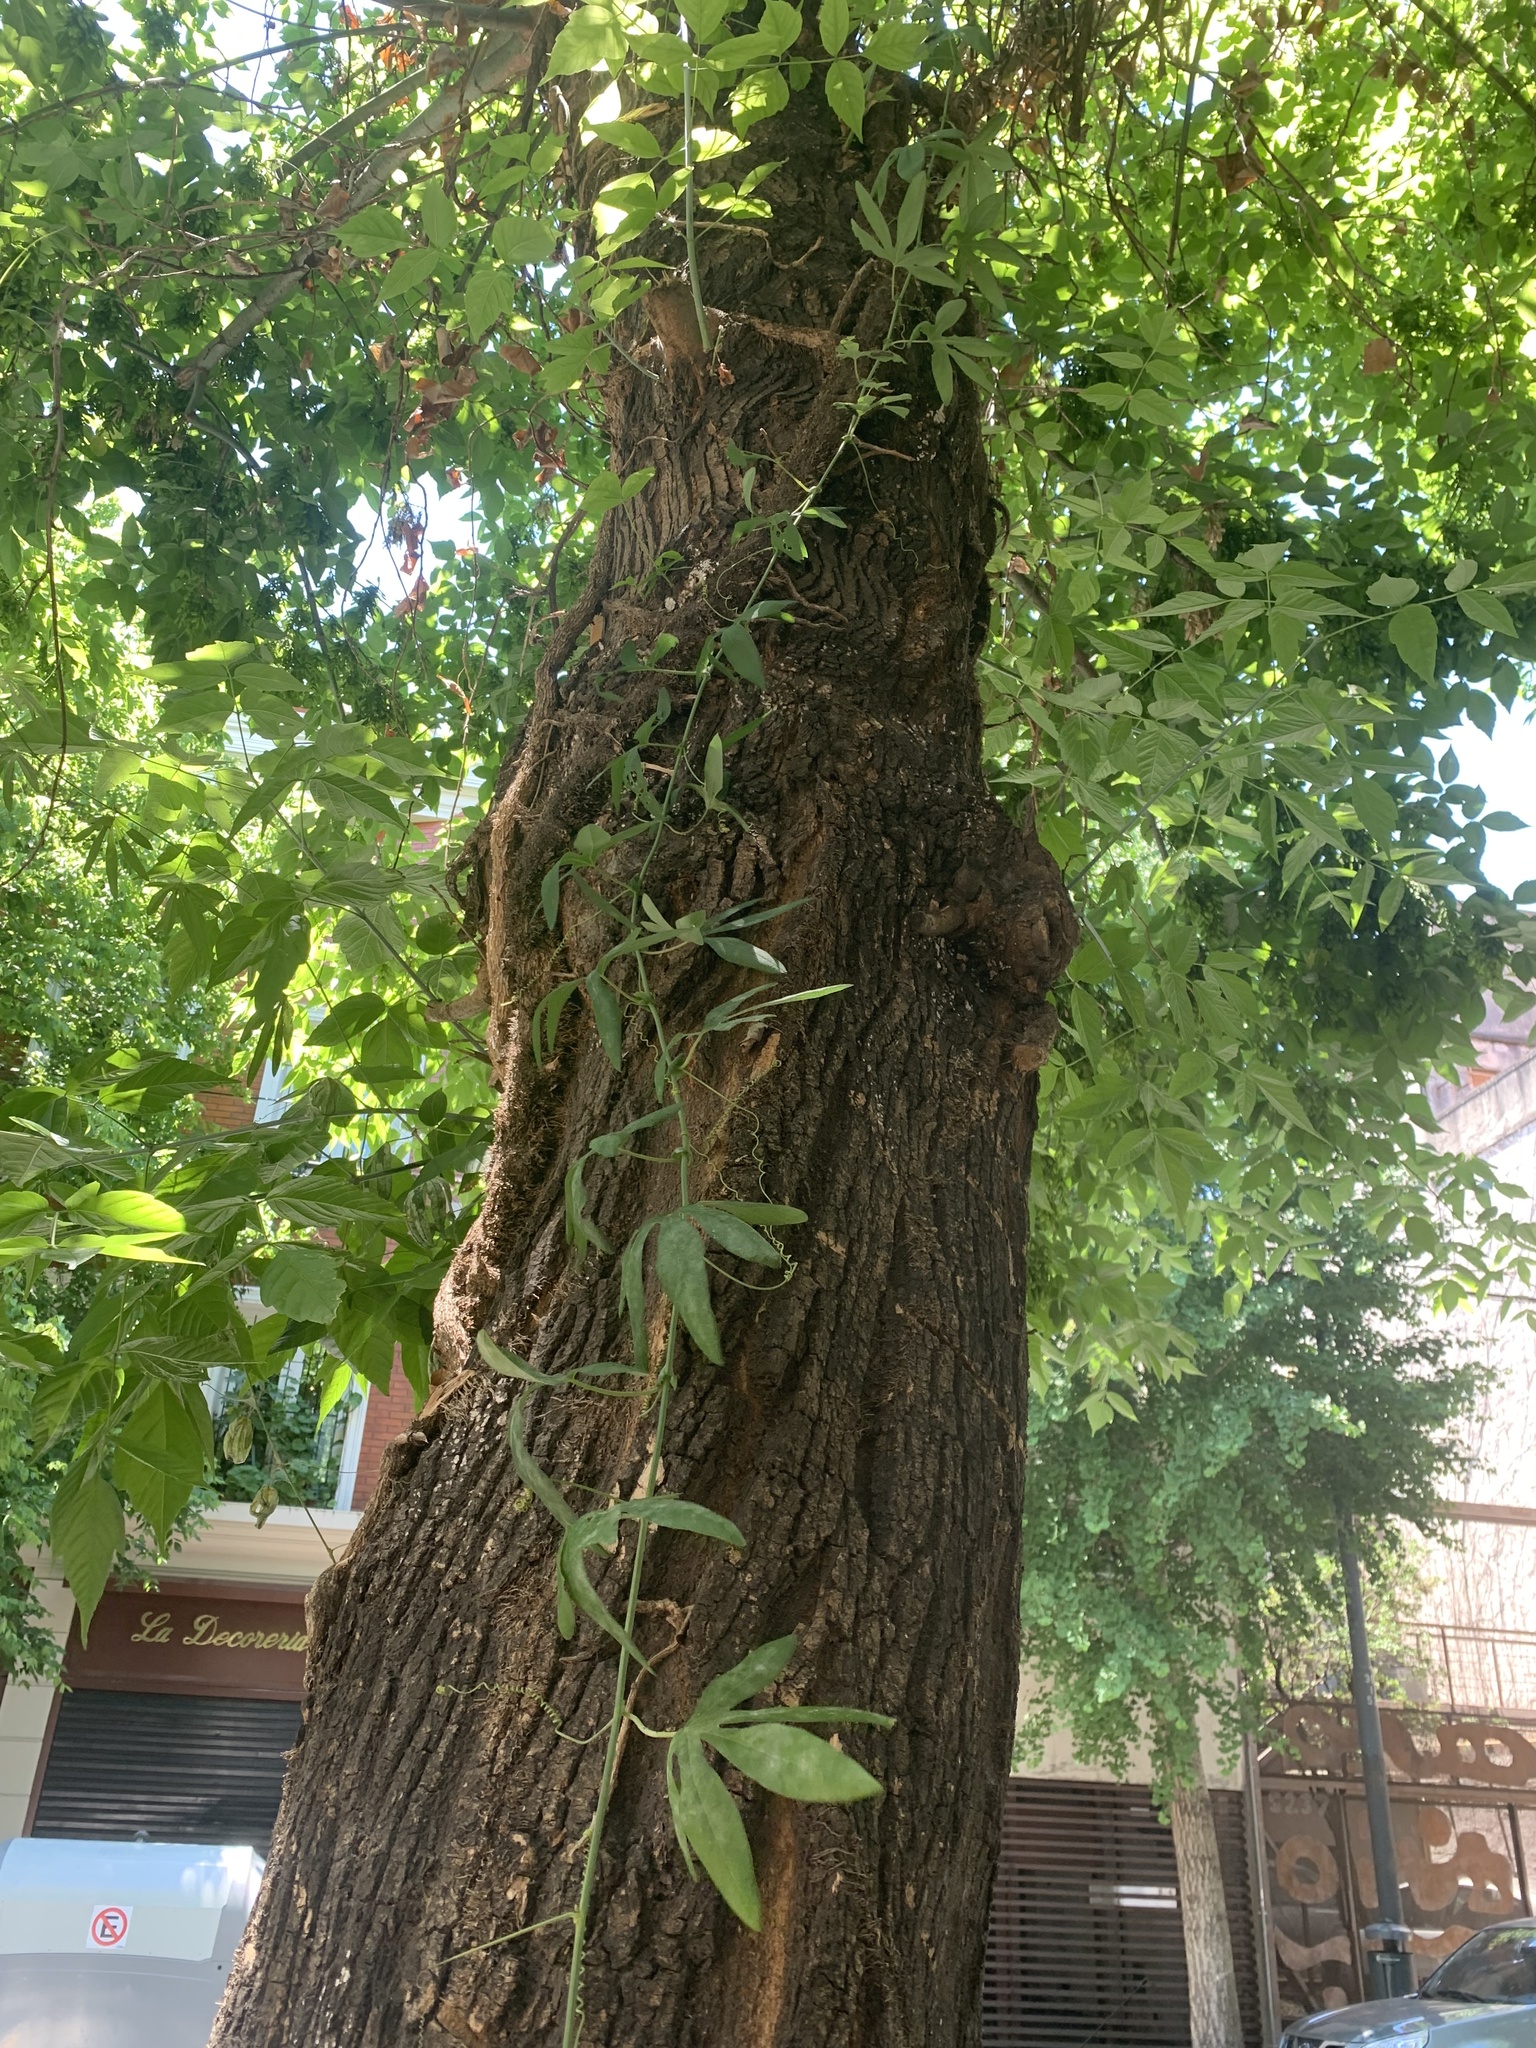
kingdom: Plantae
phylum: Tracheophyta
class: Magnoliopsida
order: Malpighiales
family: Passifloraceae
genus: Passiflora
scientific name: Passiflora caerulea
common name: Blue passionflower
